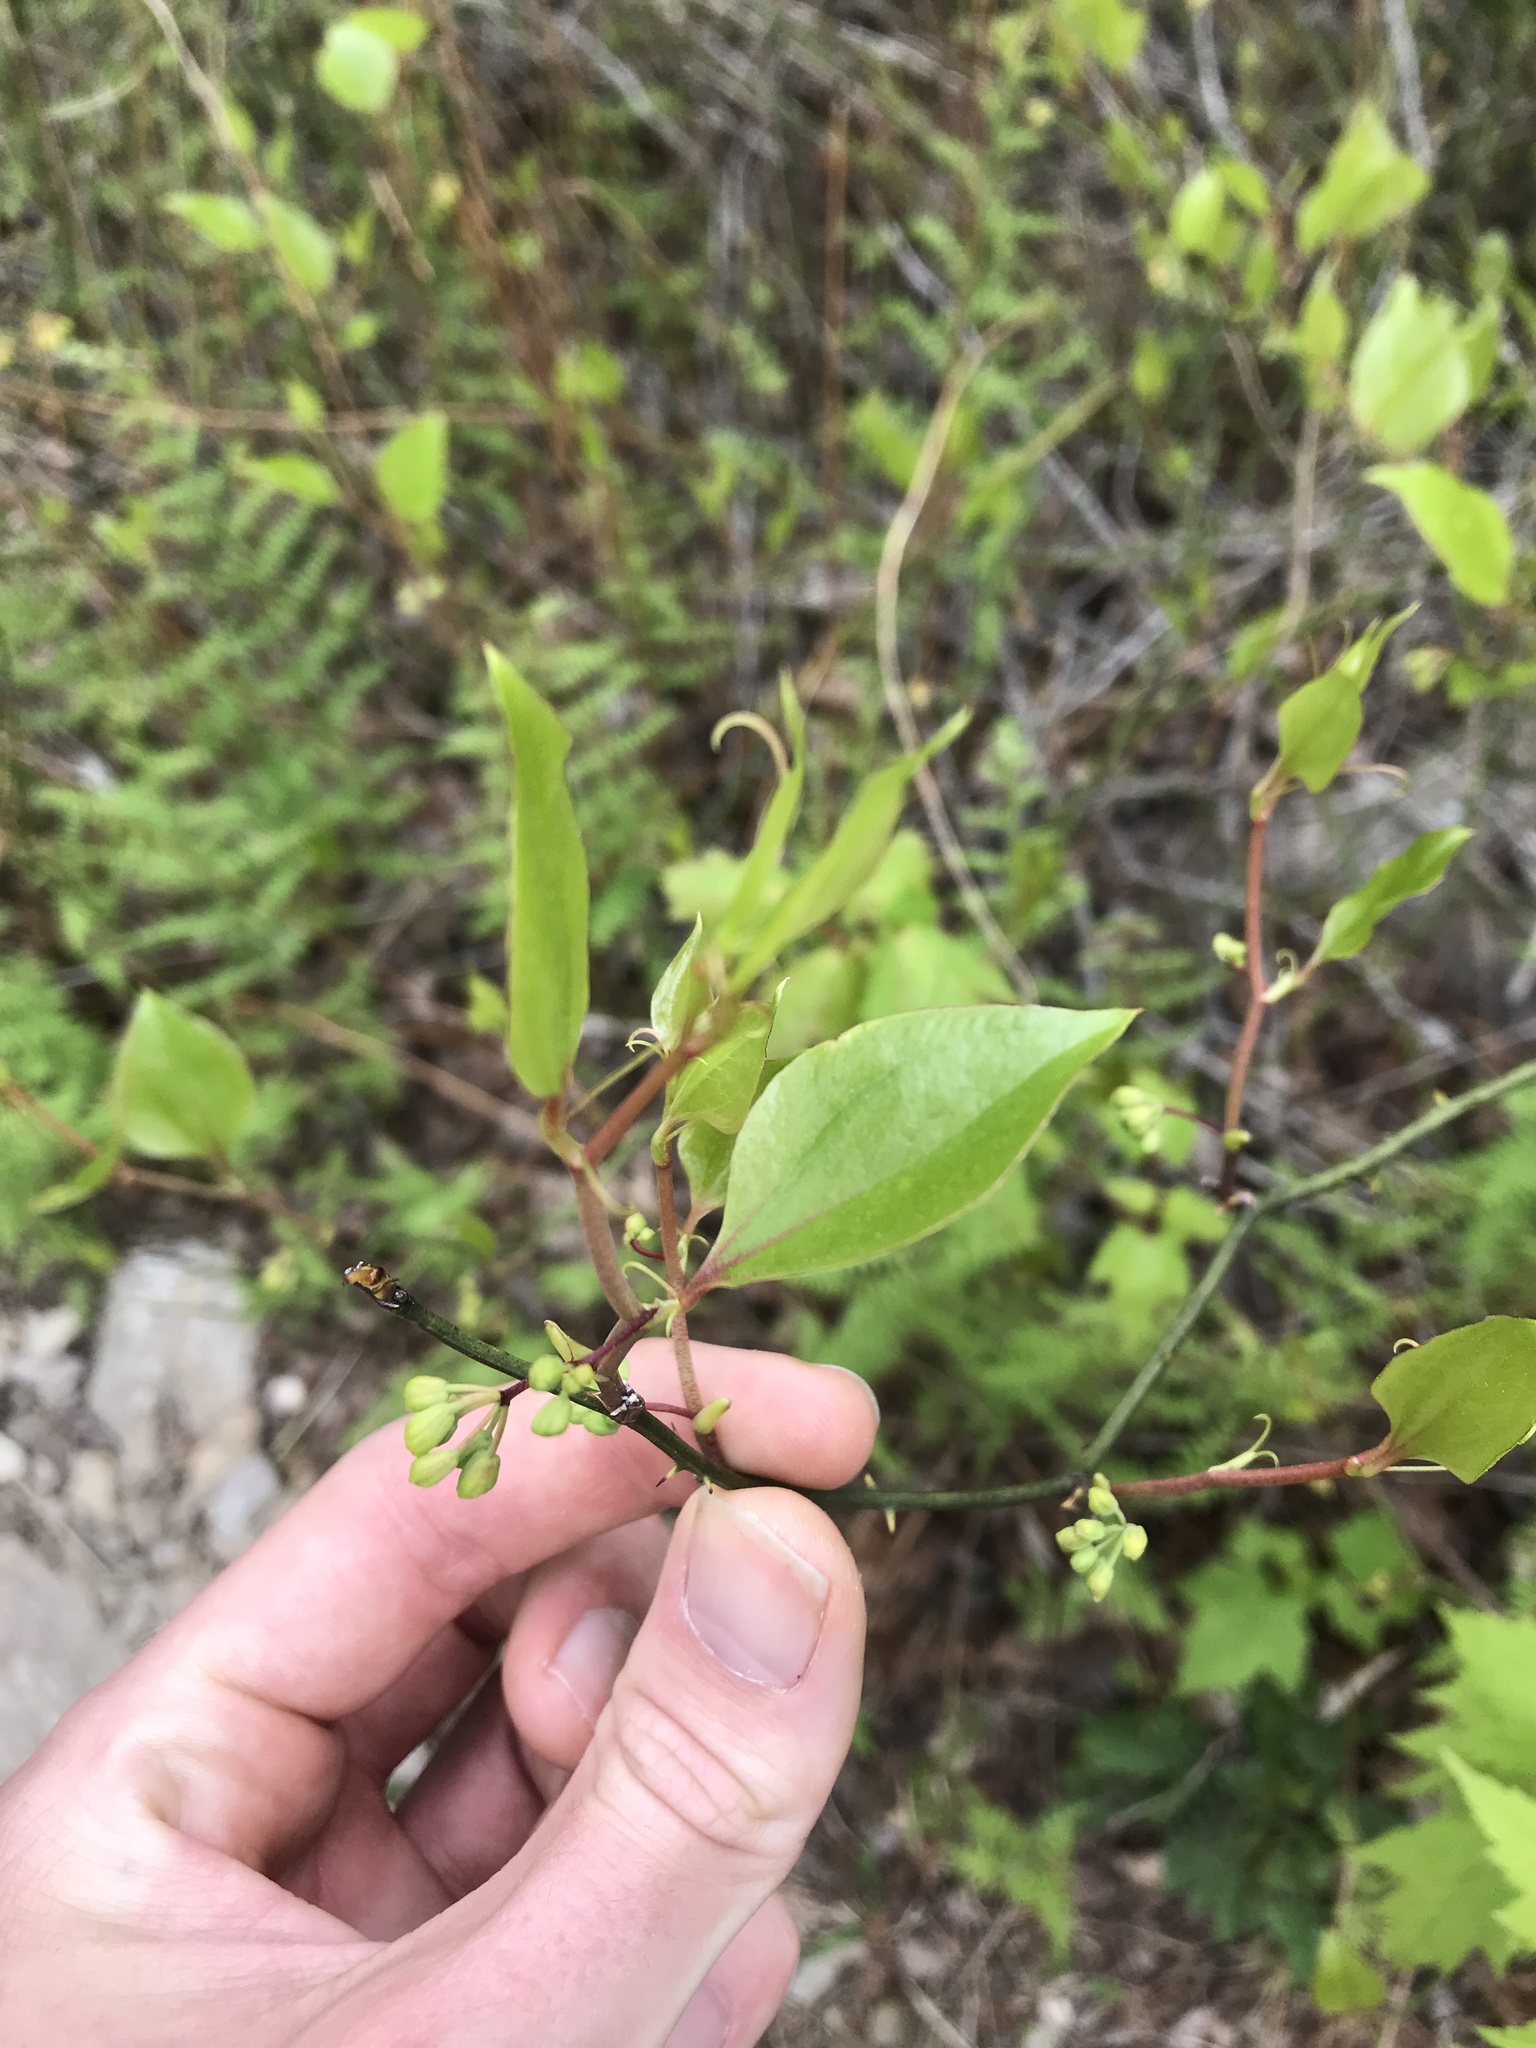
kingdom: Plantae
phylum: Tracheophyta
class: Liliopsida
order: Liliales
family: Smilacaceae
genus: Smilax
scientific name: Smilax rotundifolia
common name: Bullbriar
